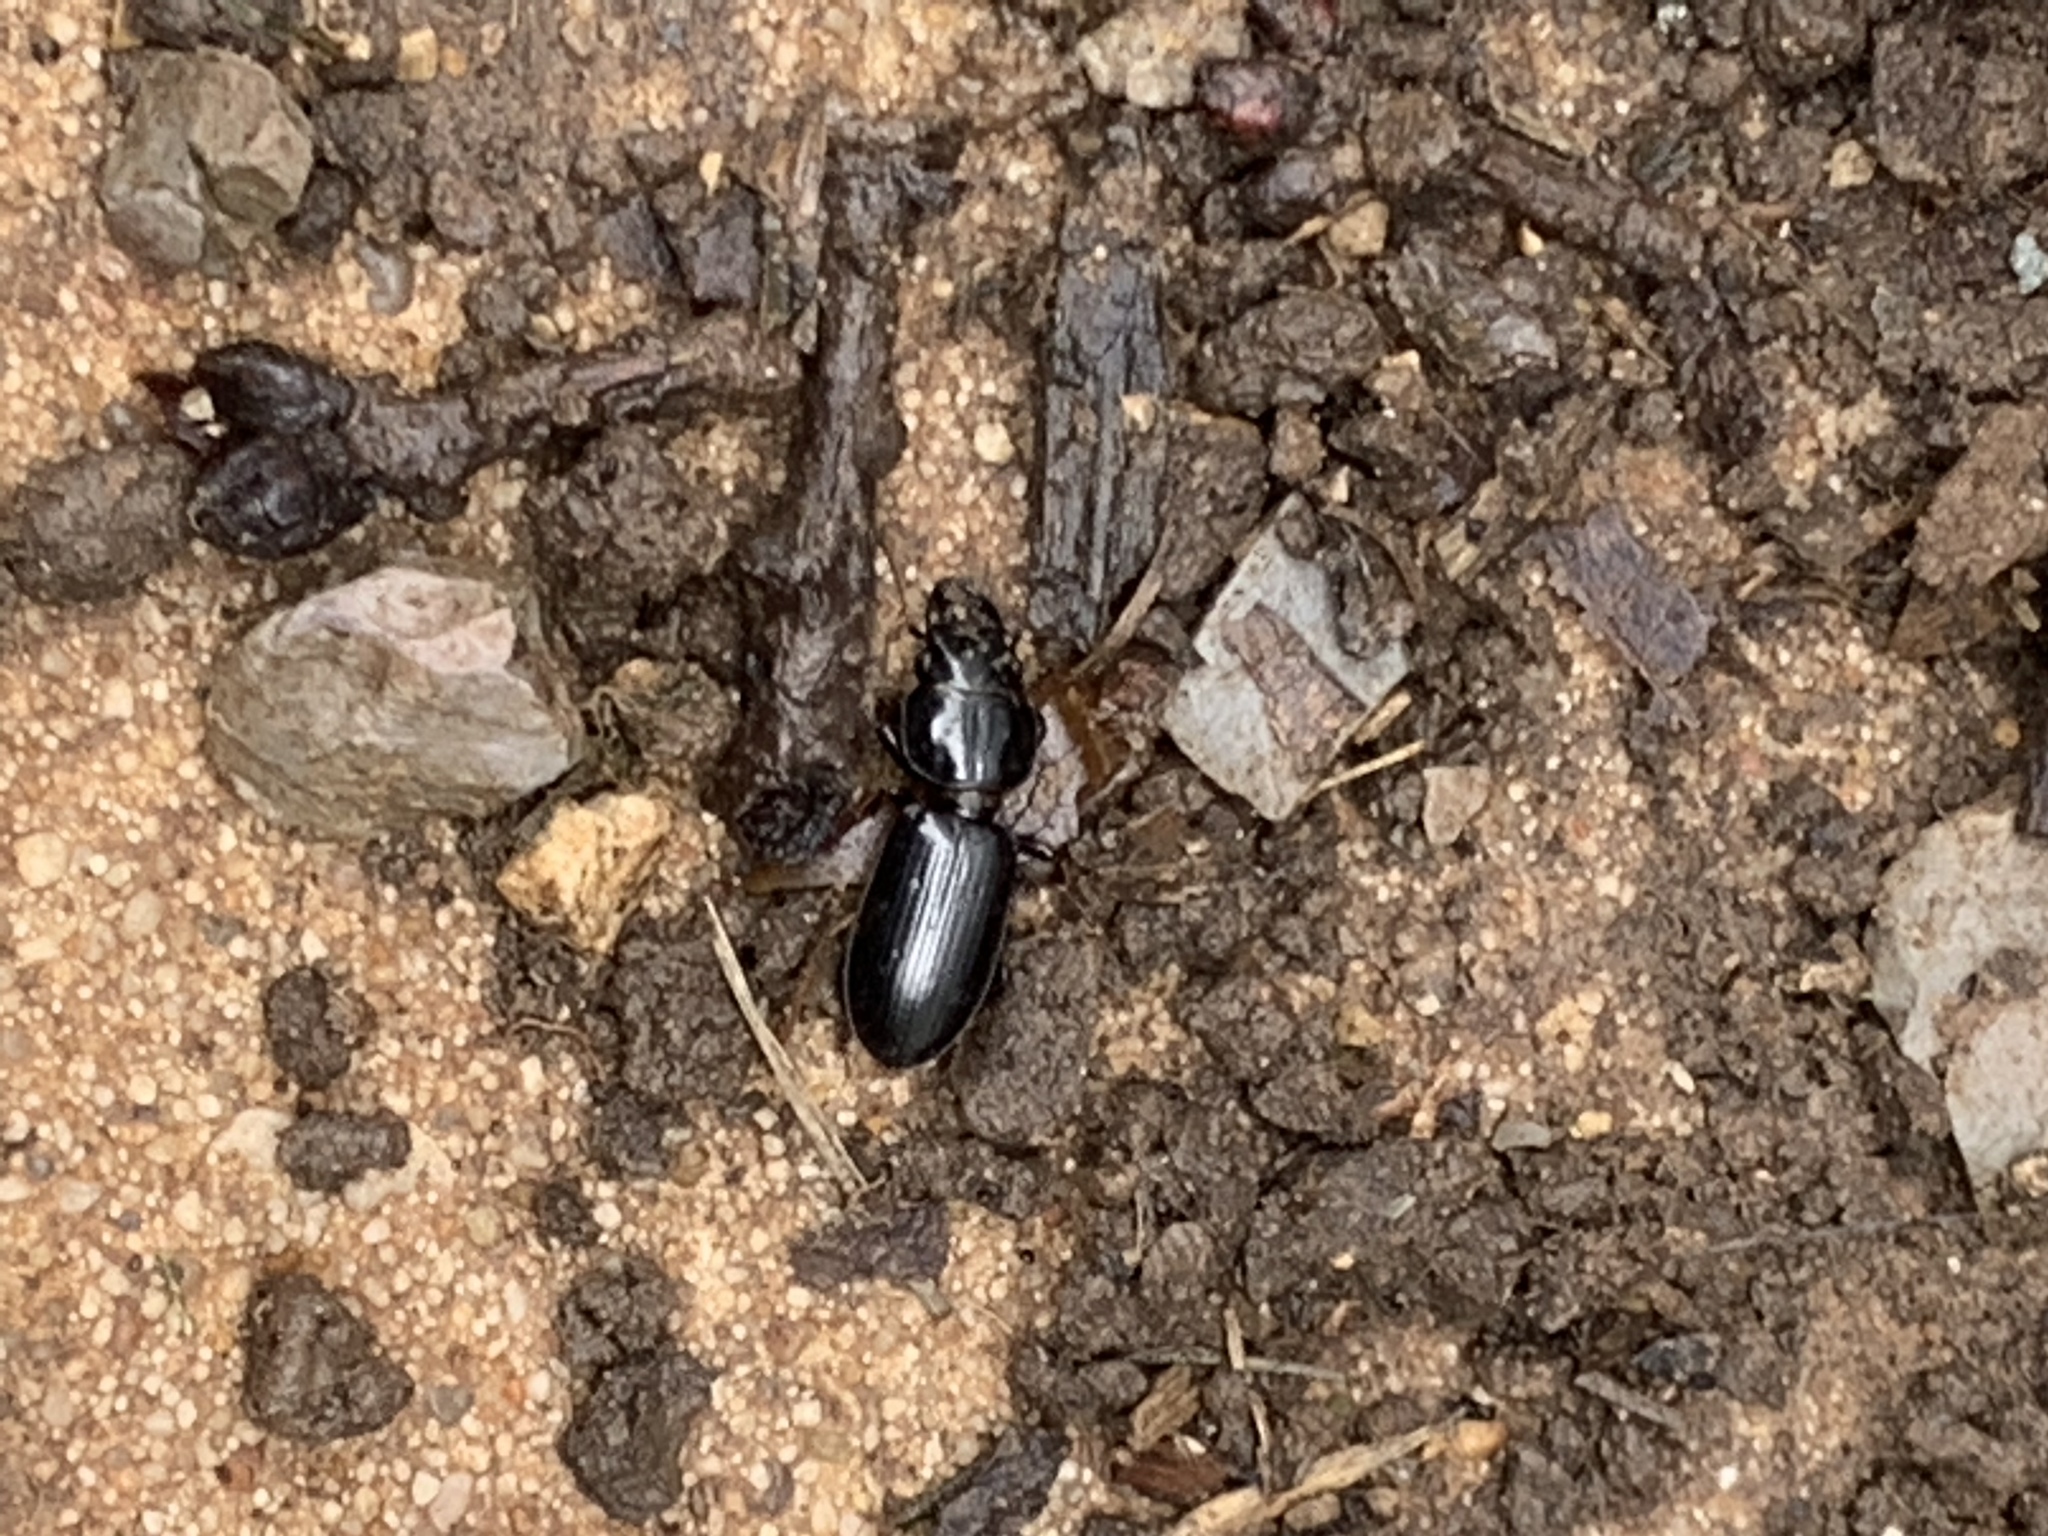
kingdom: Animalia
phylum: Arthropoda
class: Insecta
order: Coleoptera
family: Carabidae
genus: Scarites
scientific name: Scarites subterraneus
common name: Big-headed ground beetle
